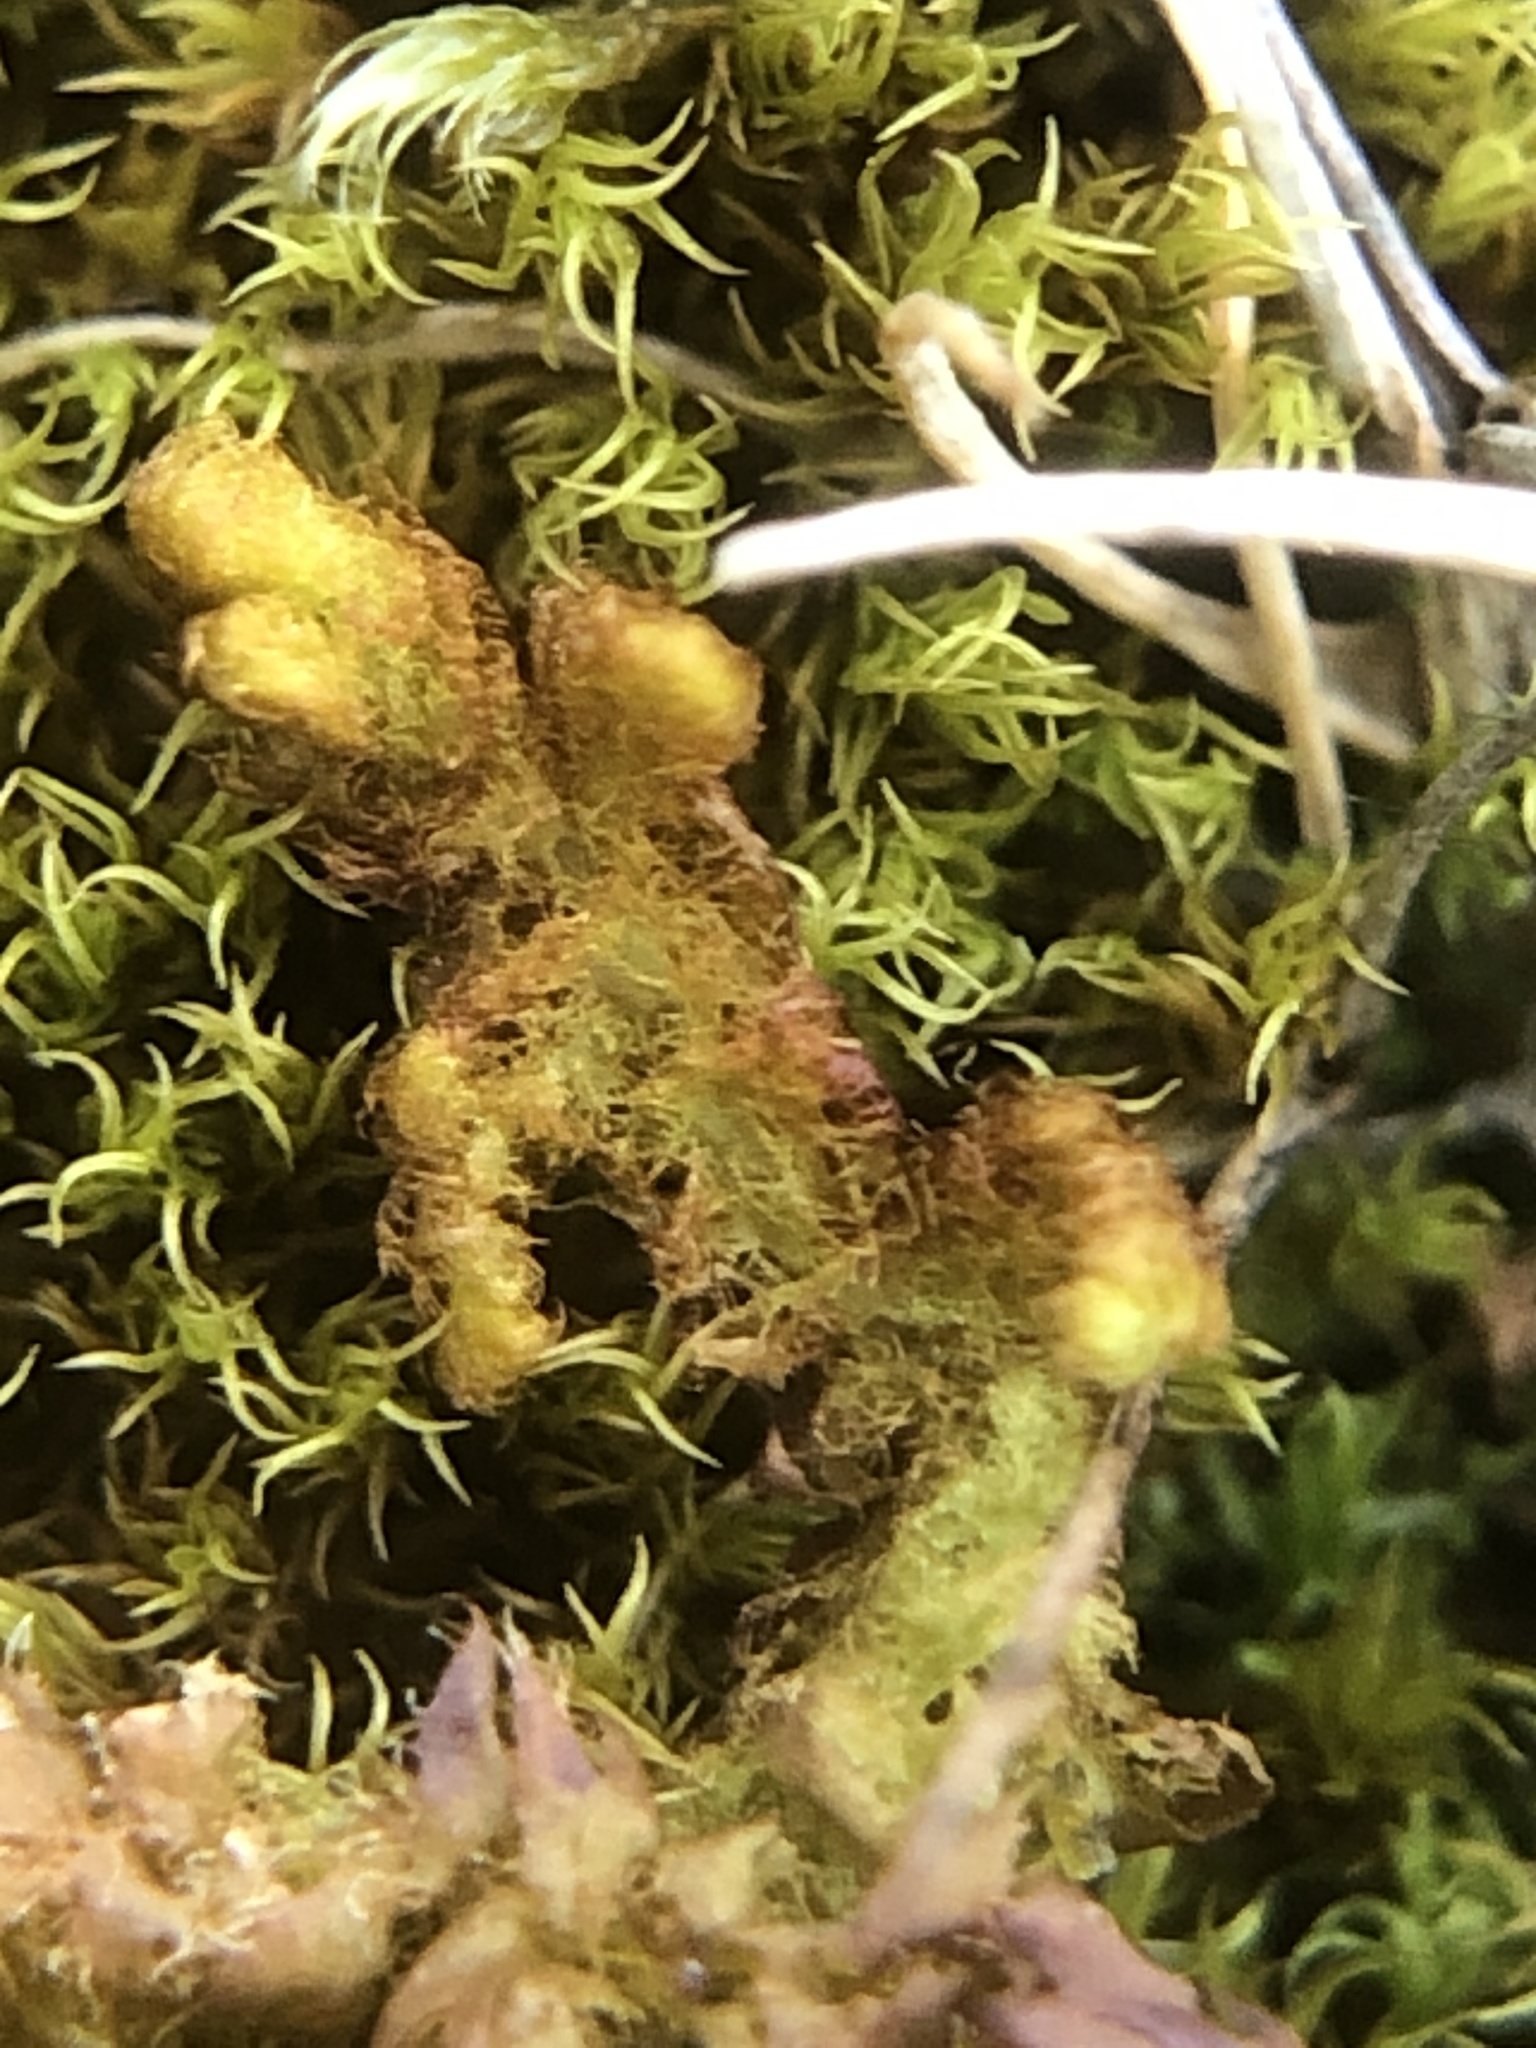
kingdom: Plantae
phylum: Marchantiophyta
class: Jungermanniopsida
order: Ptilidiales
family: Ptilidiaceae
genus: Ptilidium
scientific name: Ptilidium ciliare
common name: Ciliate fringewort
